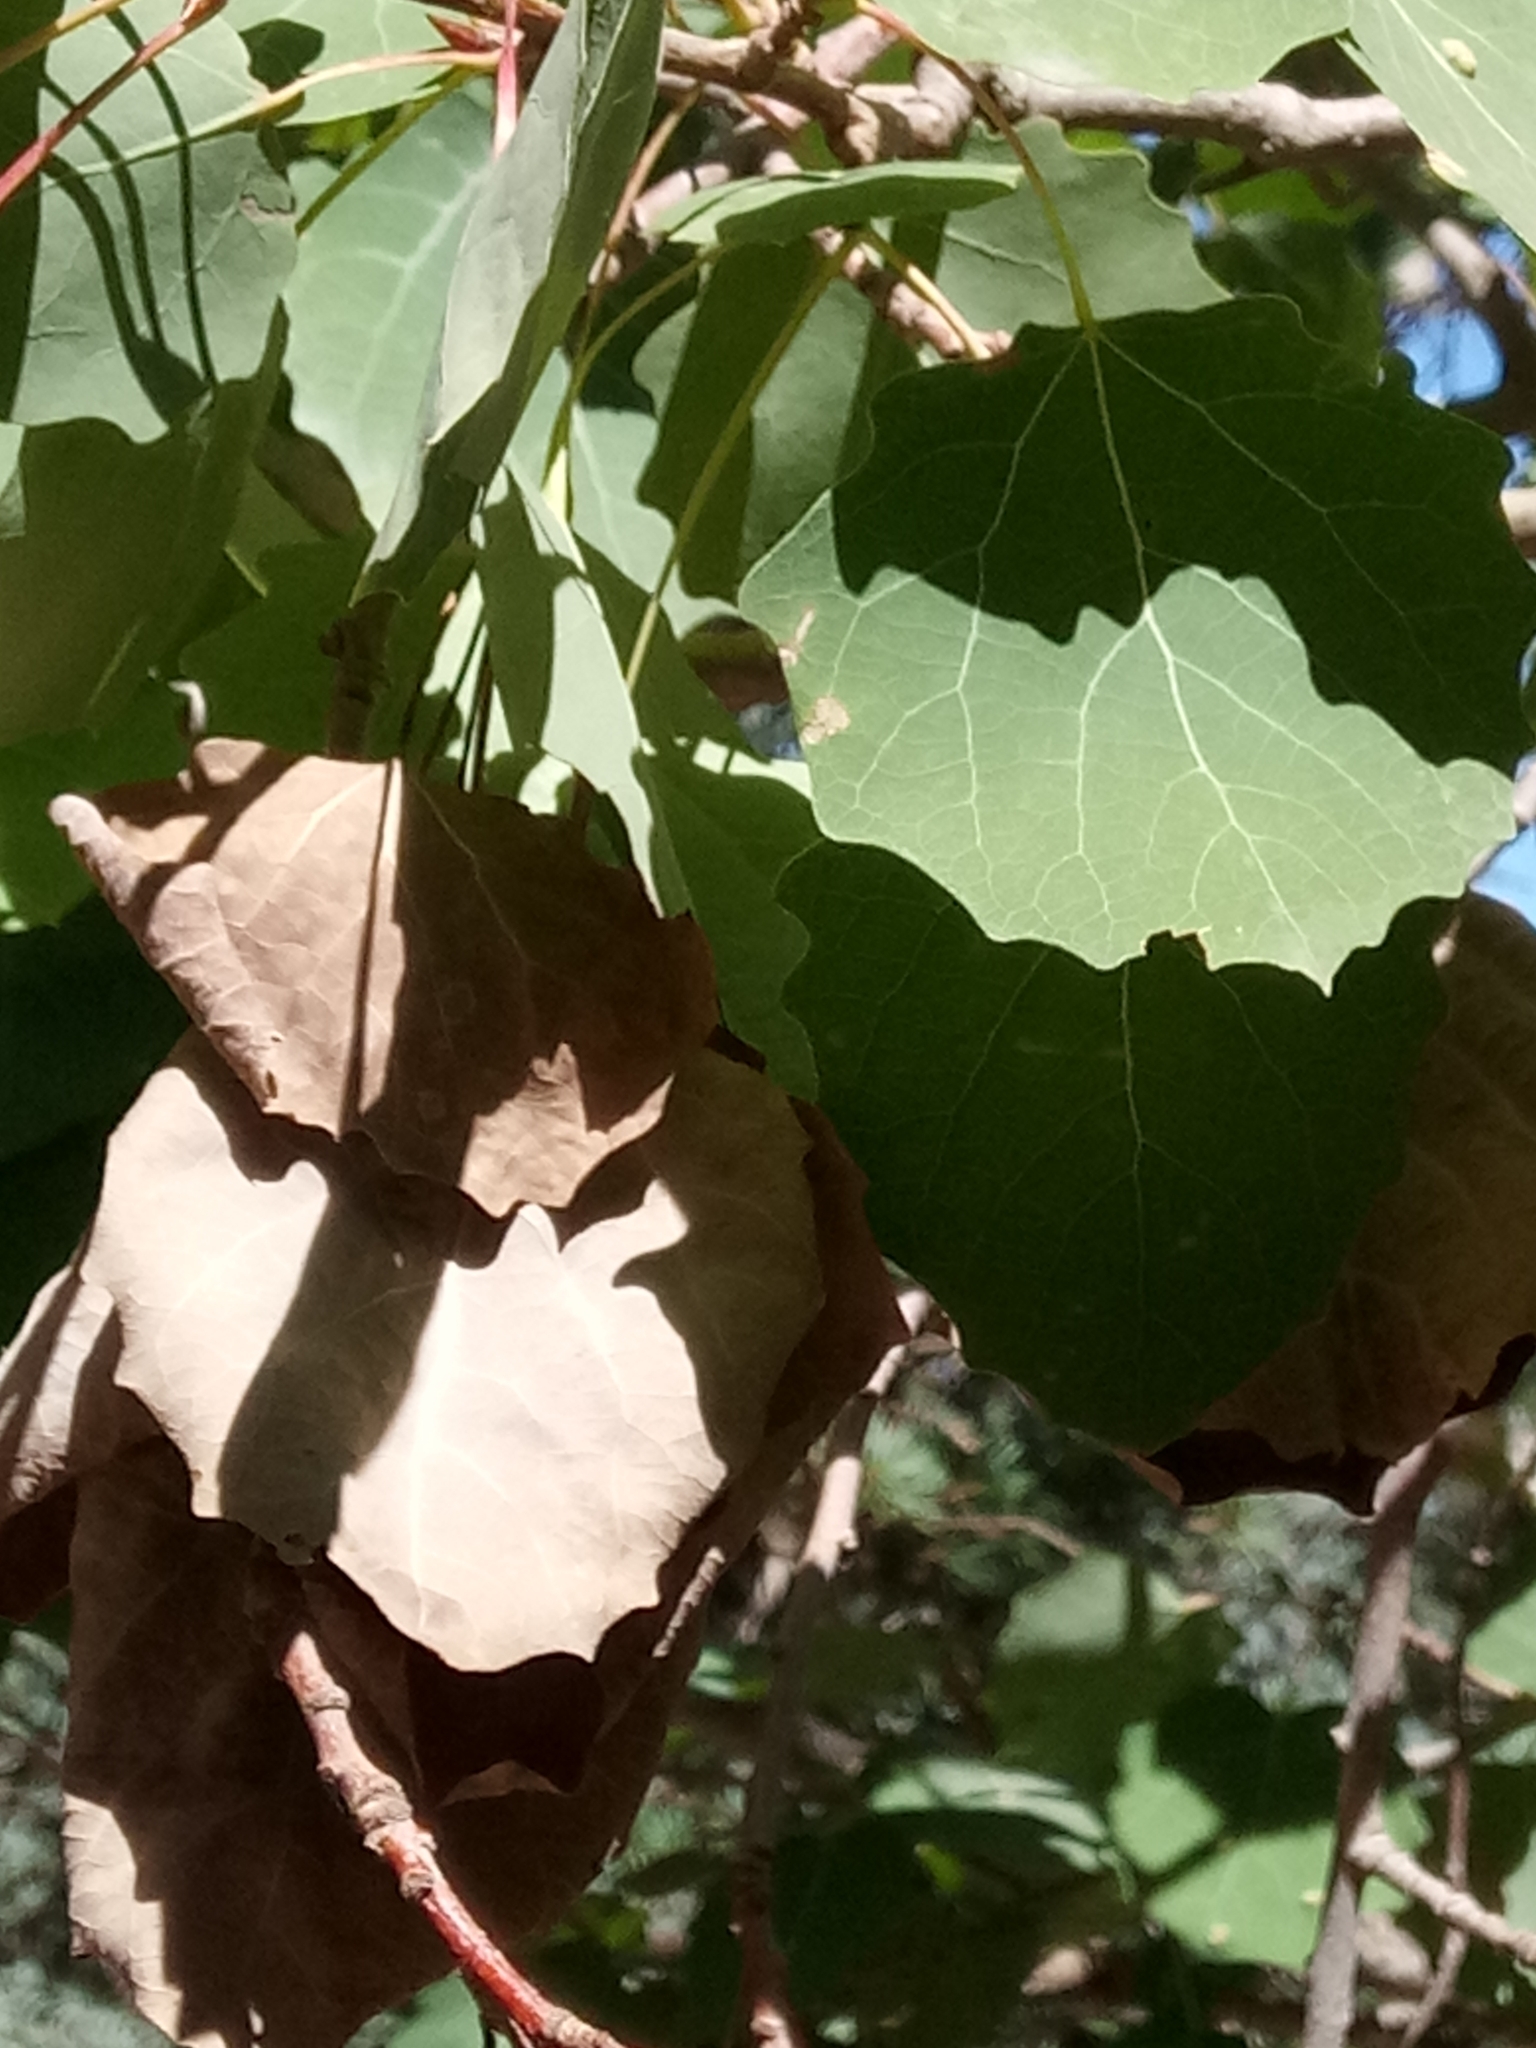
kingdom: Plantae
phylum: Tracheophyta
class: Magnoliopsida
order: Malpighiales
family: Salicaceae
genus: Populus
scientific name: Populus tremula
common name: European aspen
